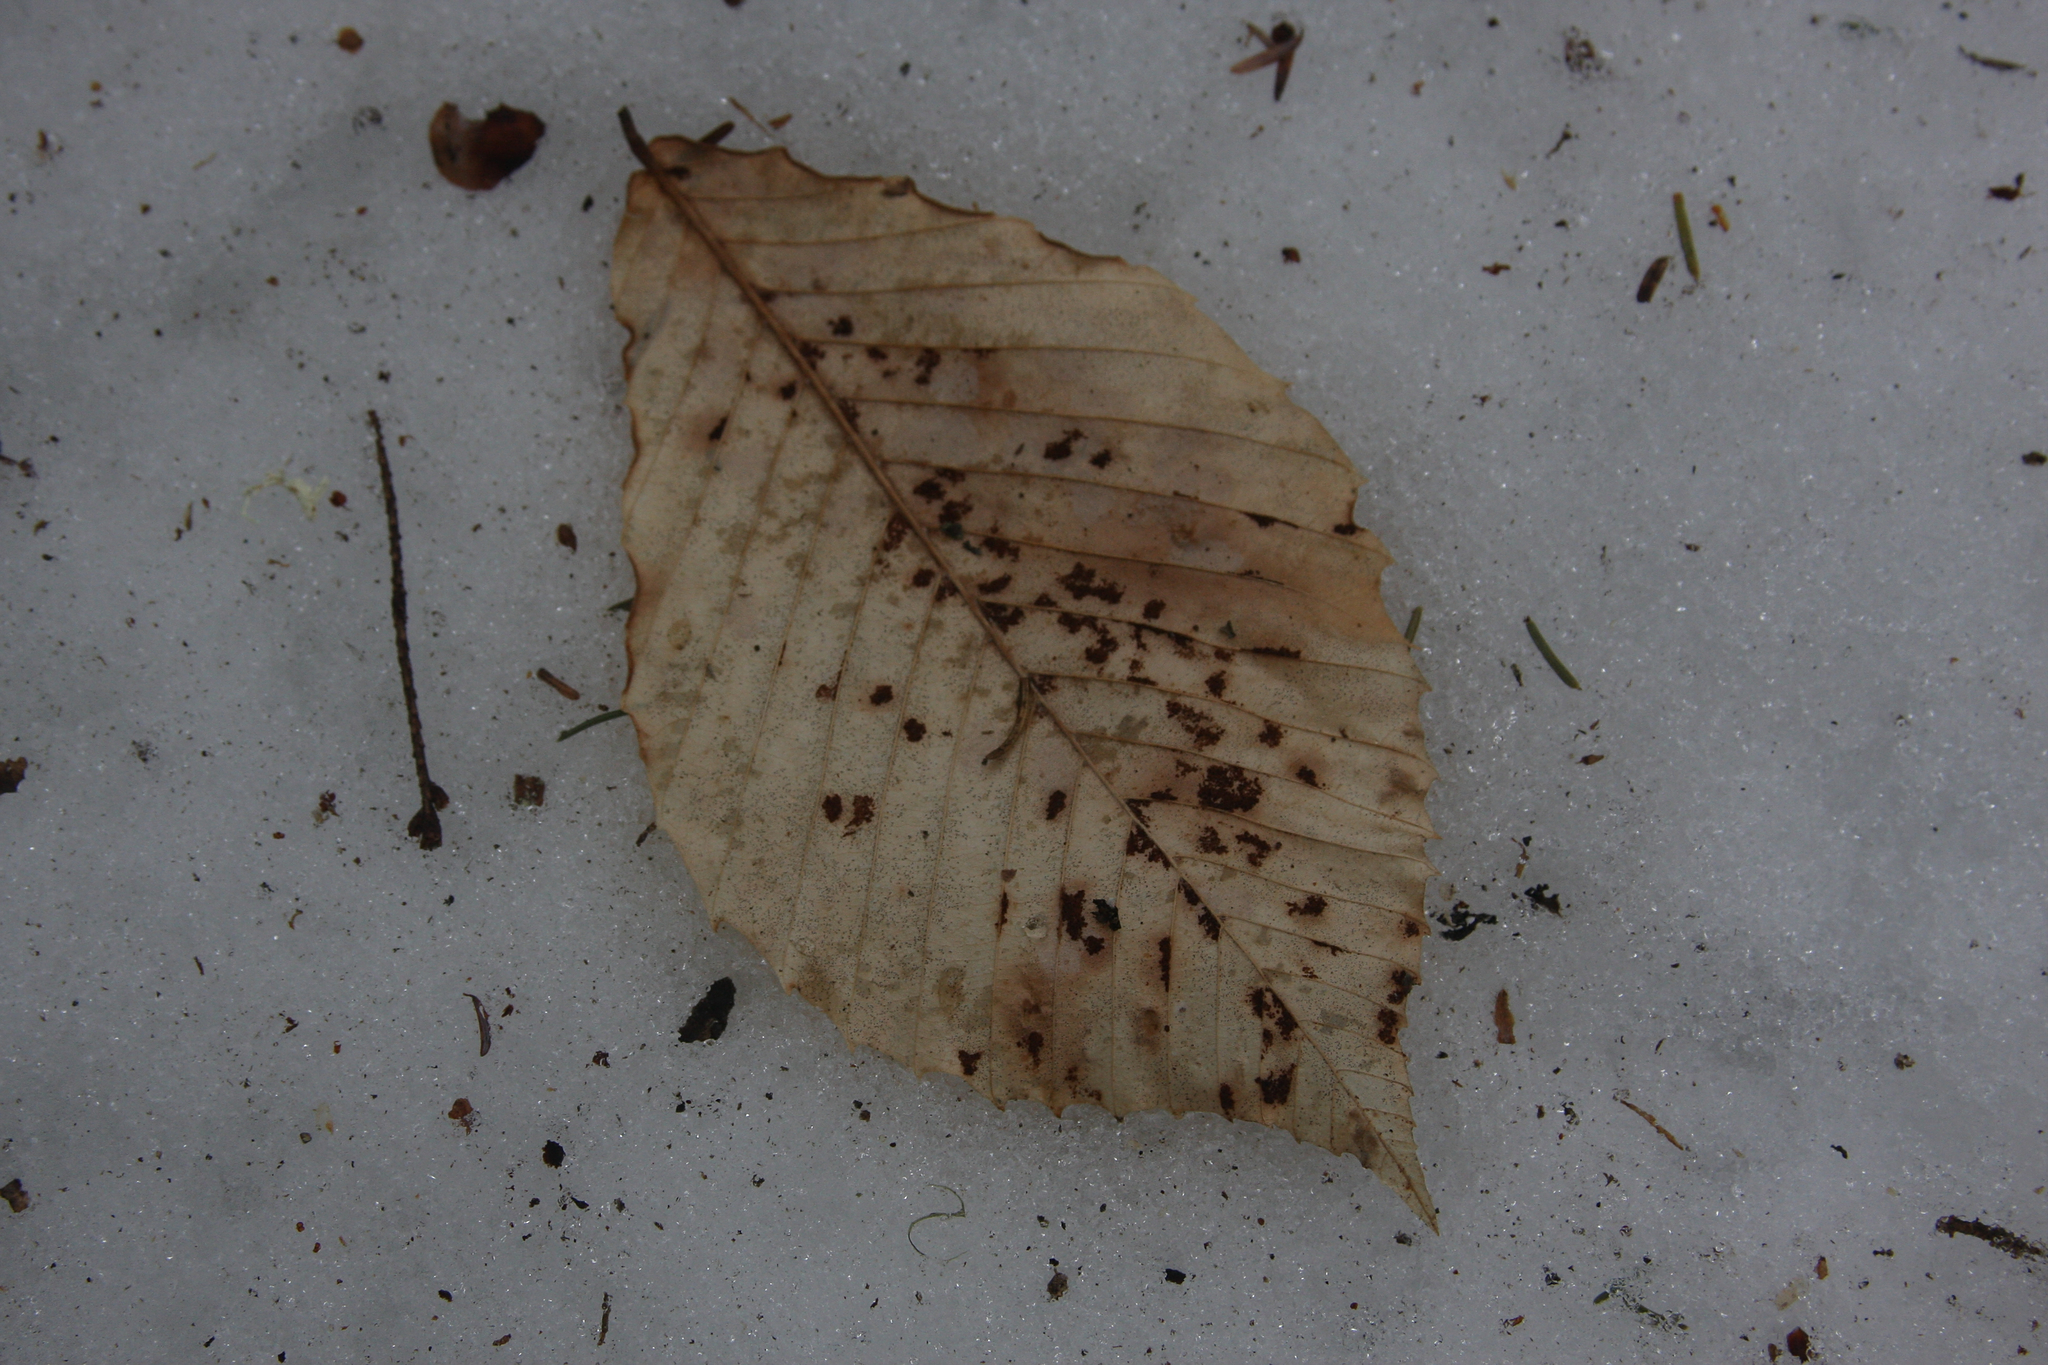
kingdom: Plantae
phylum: Tracheophyta
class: Magnoliopsida
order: Fagales
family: Fagaceae
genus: Fagus
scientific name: Fagus grandifolia
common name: American beech
